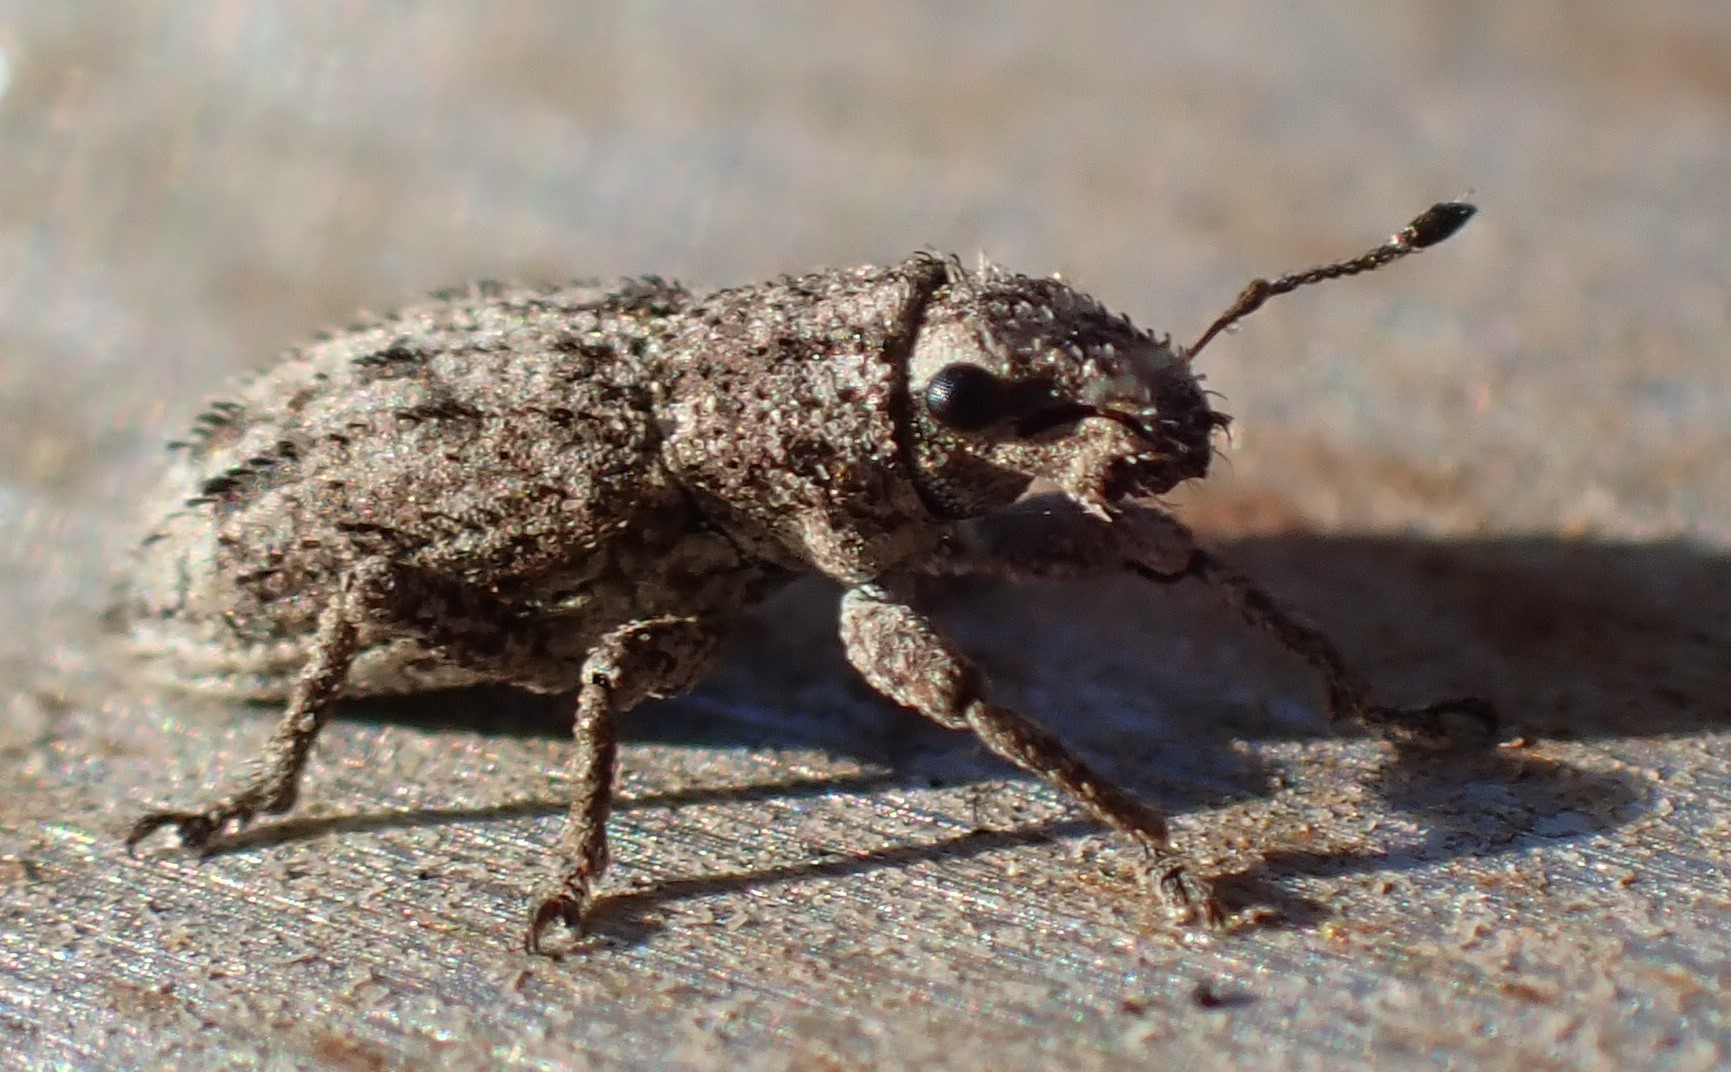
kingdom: Animalia
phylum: Arthropoda
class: Insecta
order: Coleoptera
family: Curculionidae
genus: Floresianus
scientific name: Floresianus sordidus
